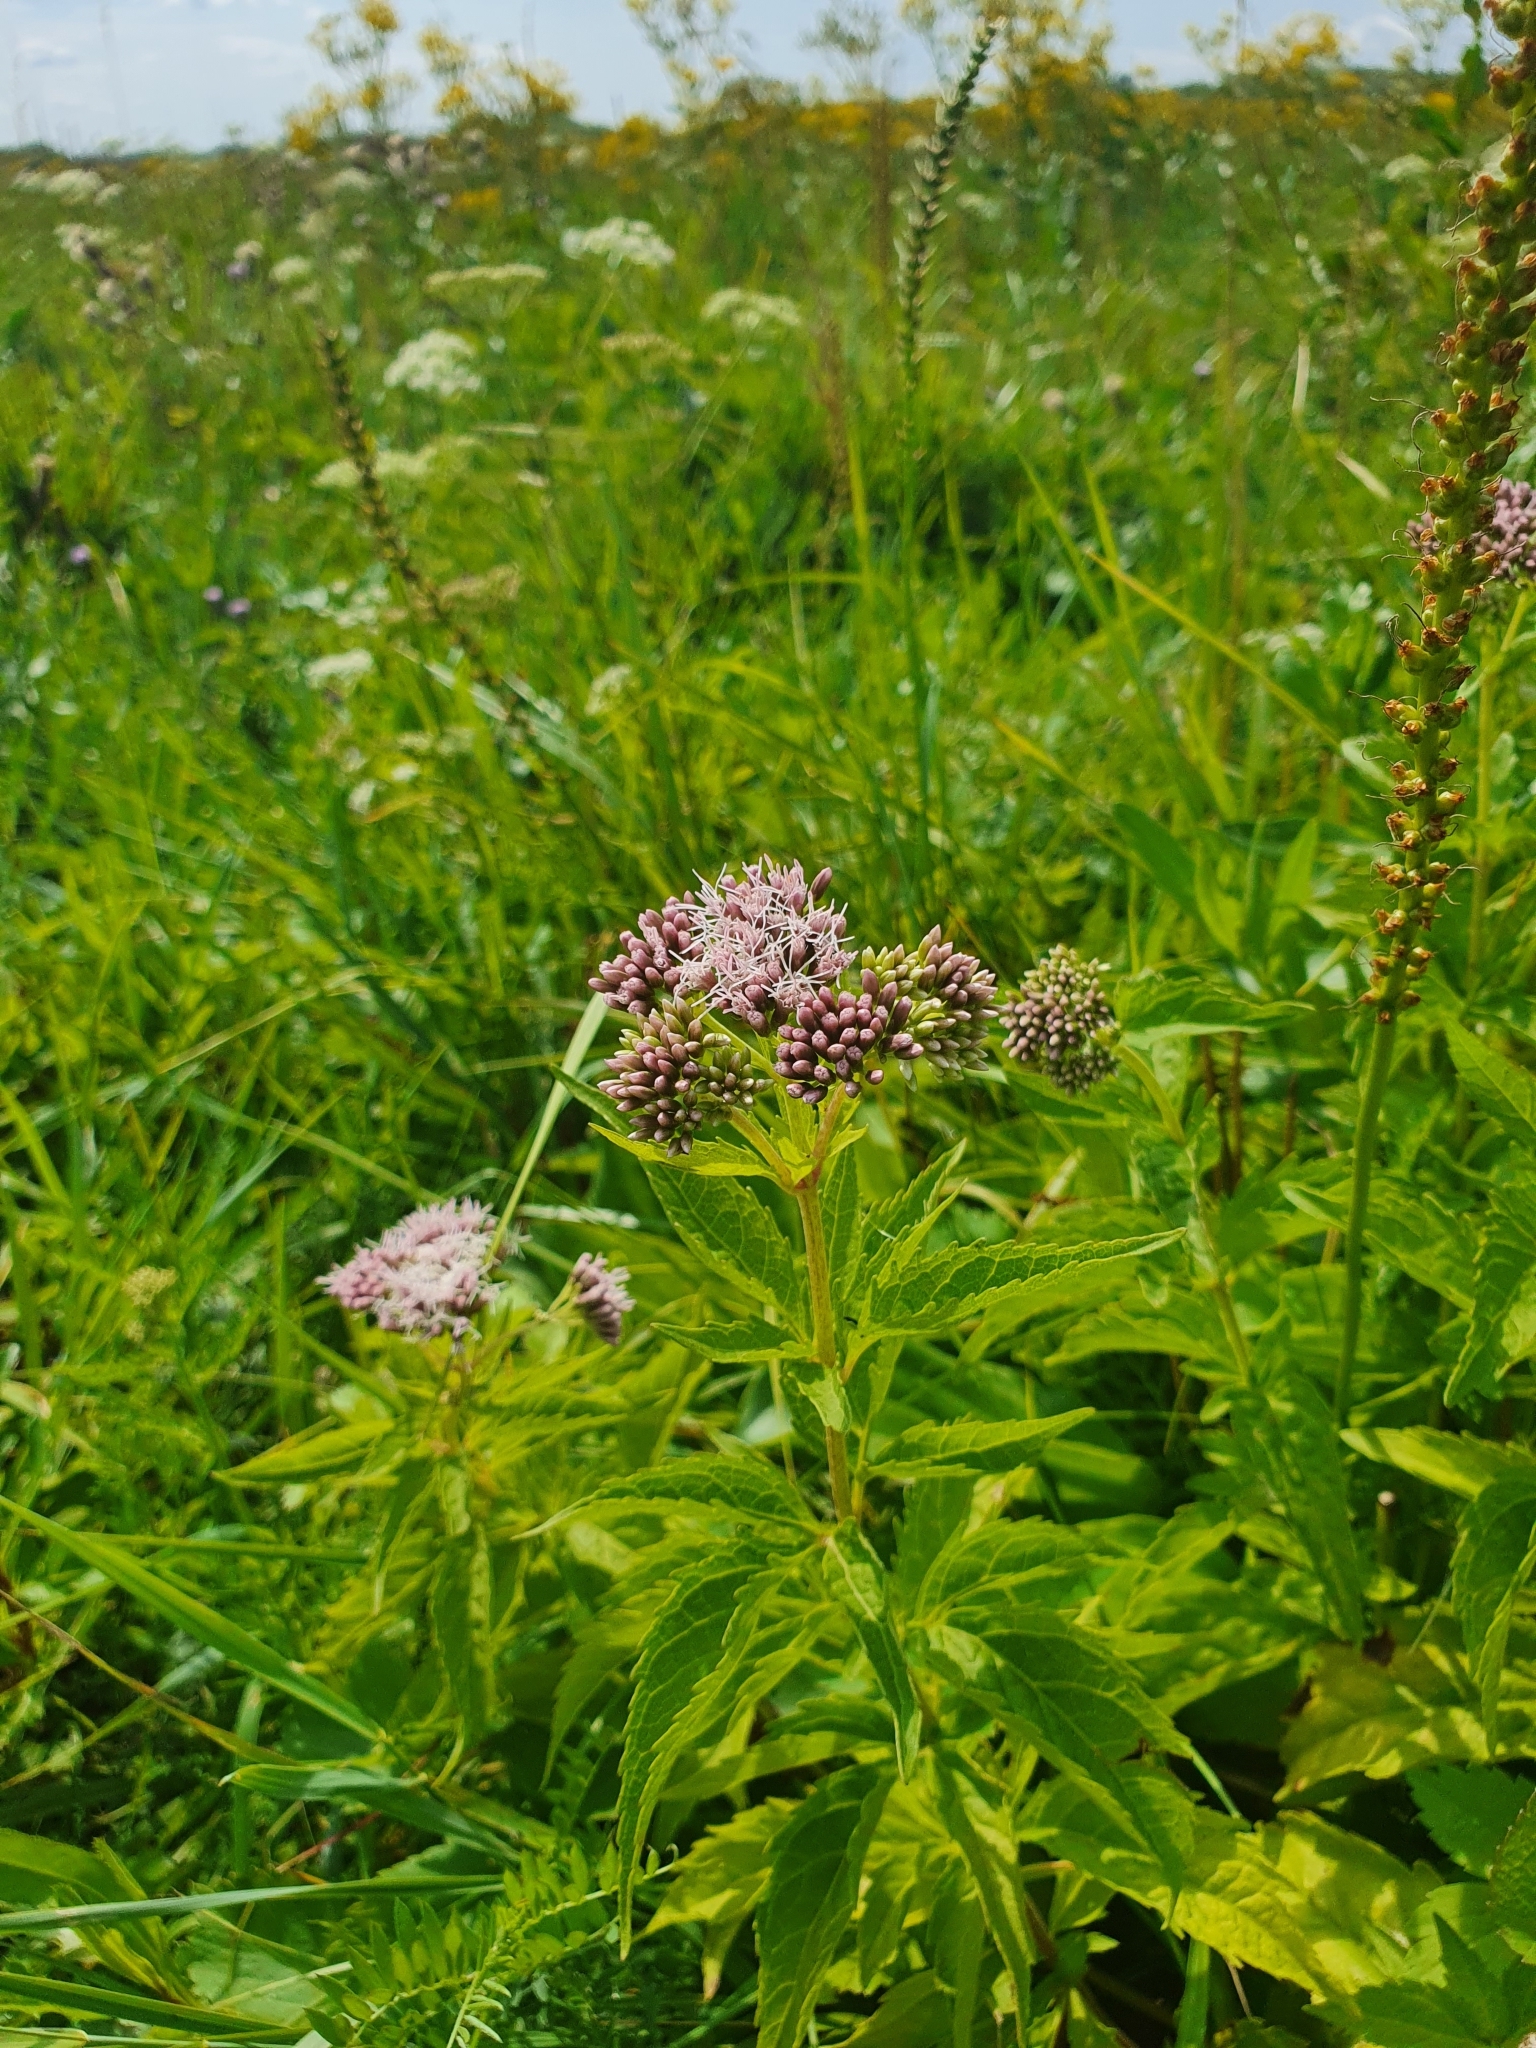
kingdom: Plantae
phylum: Tracheophyta
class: Magnoliopsida
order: Asterales
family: Asteraceae
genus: Eupatorium
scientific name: Eupatorium cannabinum
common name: Hemp-agrimony
